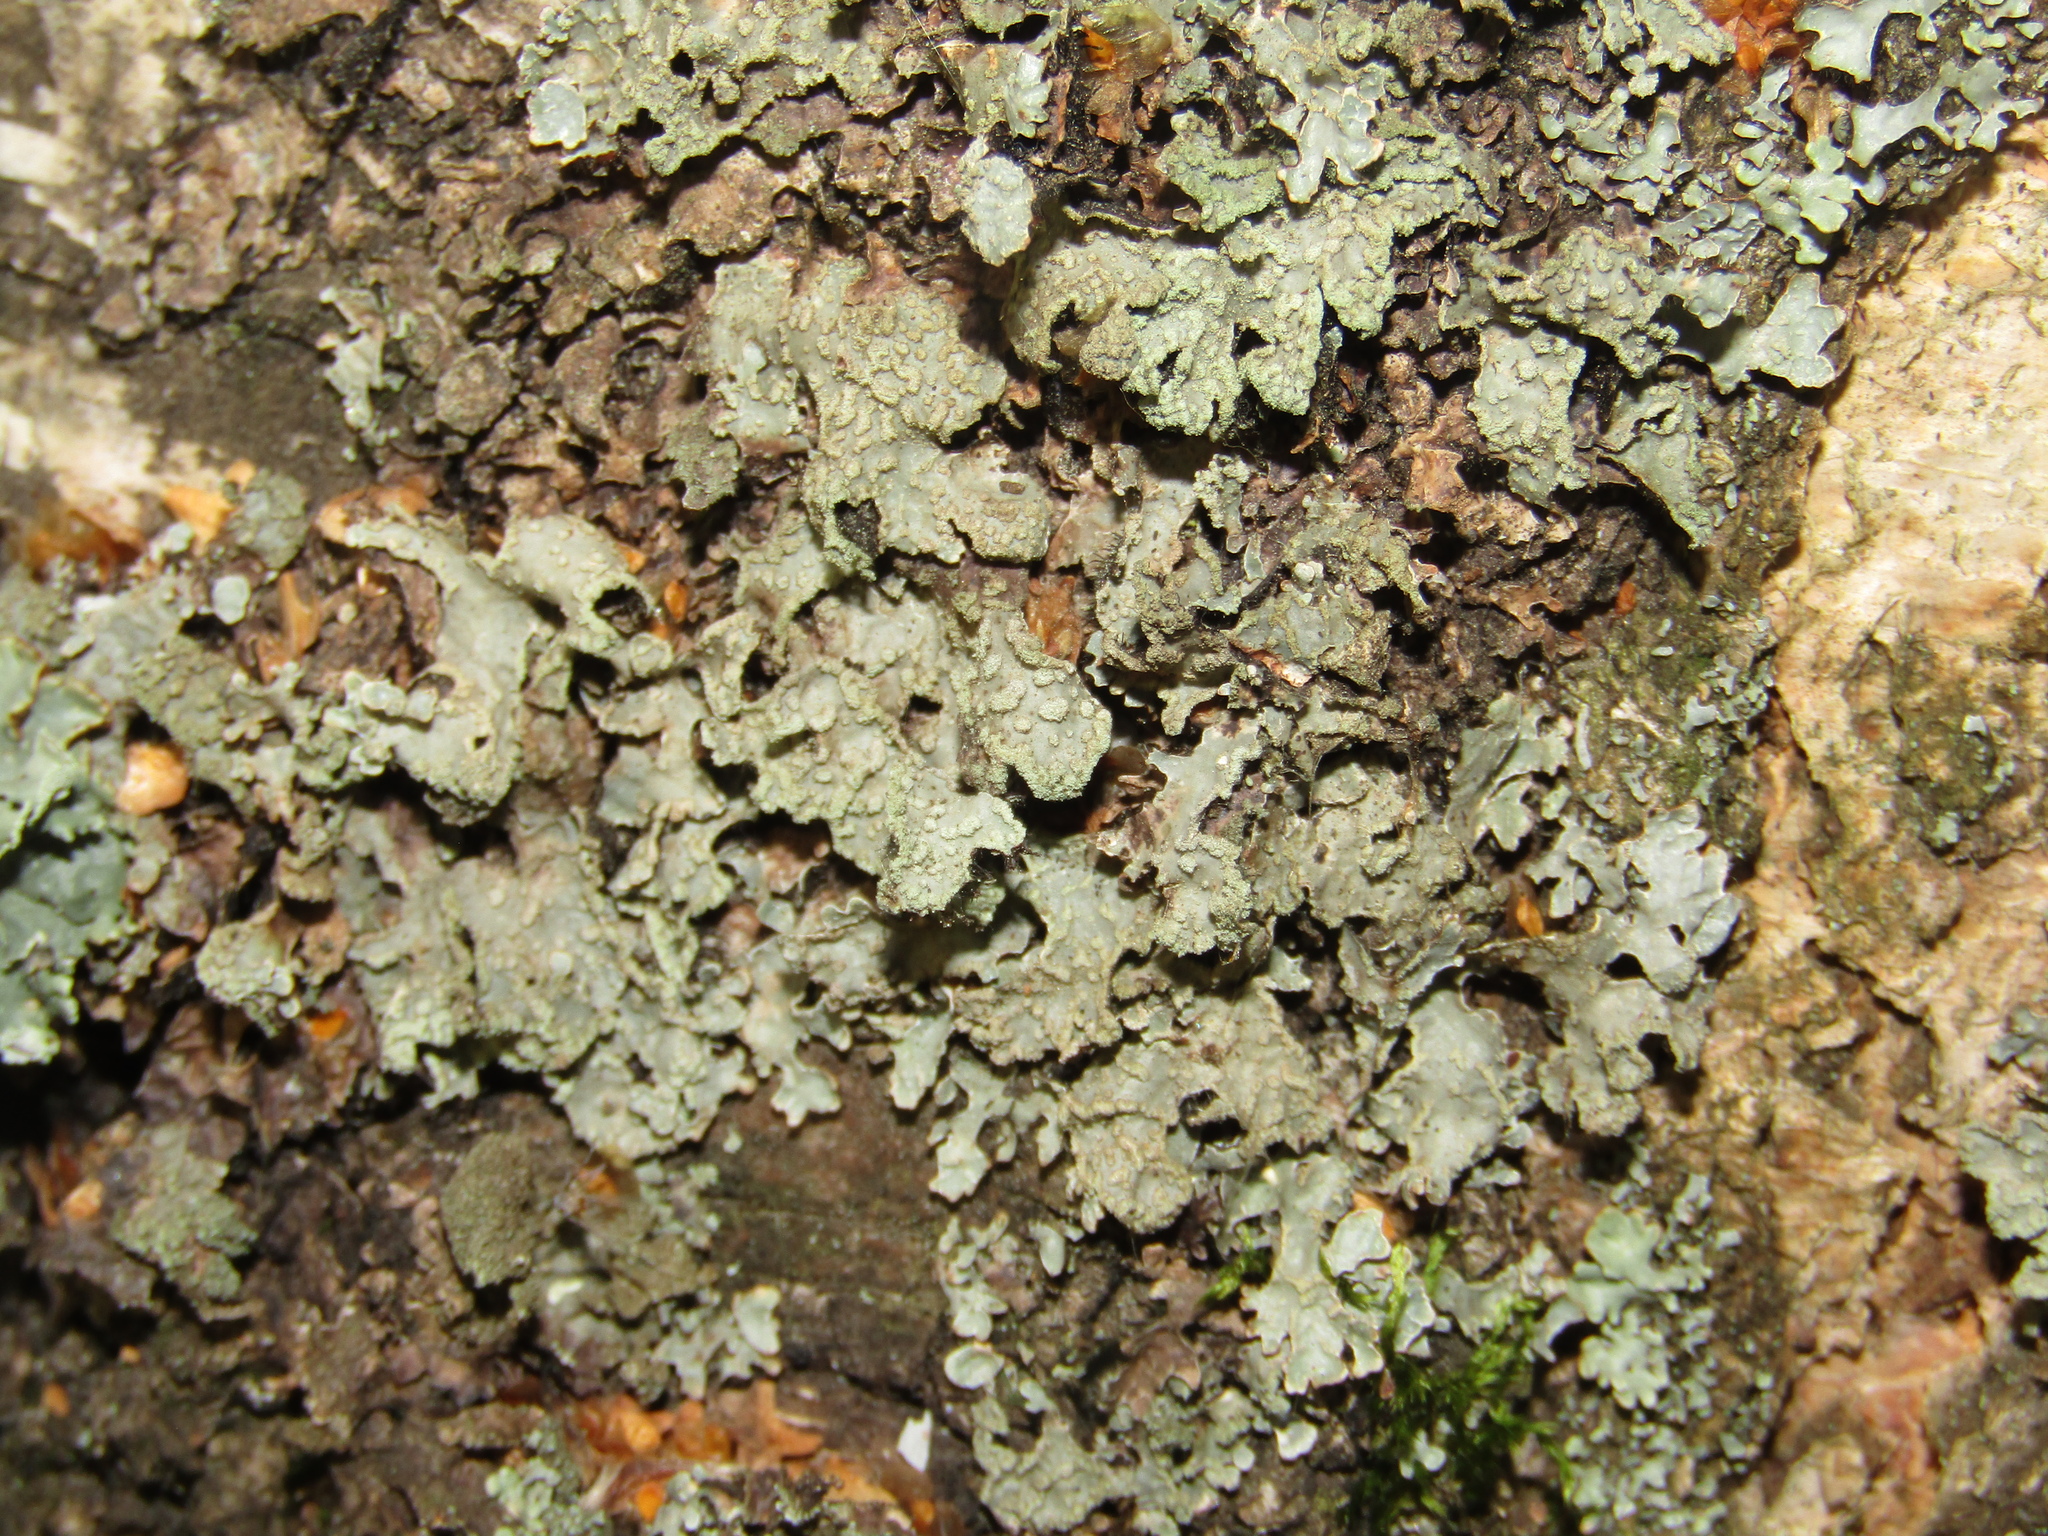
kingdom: Fungi
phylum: Ascomycota
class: Lecanoromycetes
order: Lecanorales
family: Parmeliaceae
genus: Parmelia
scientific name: Parmelia sulcata
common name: Netted shield lichen
